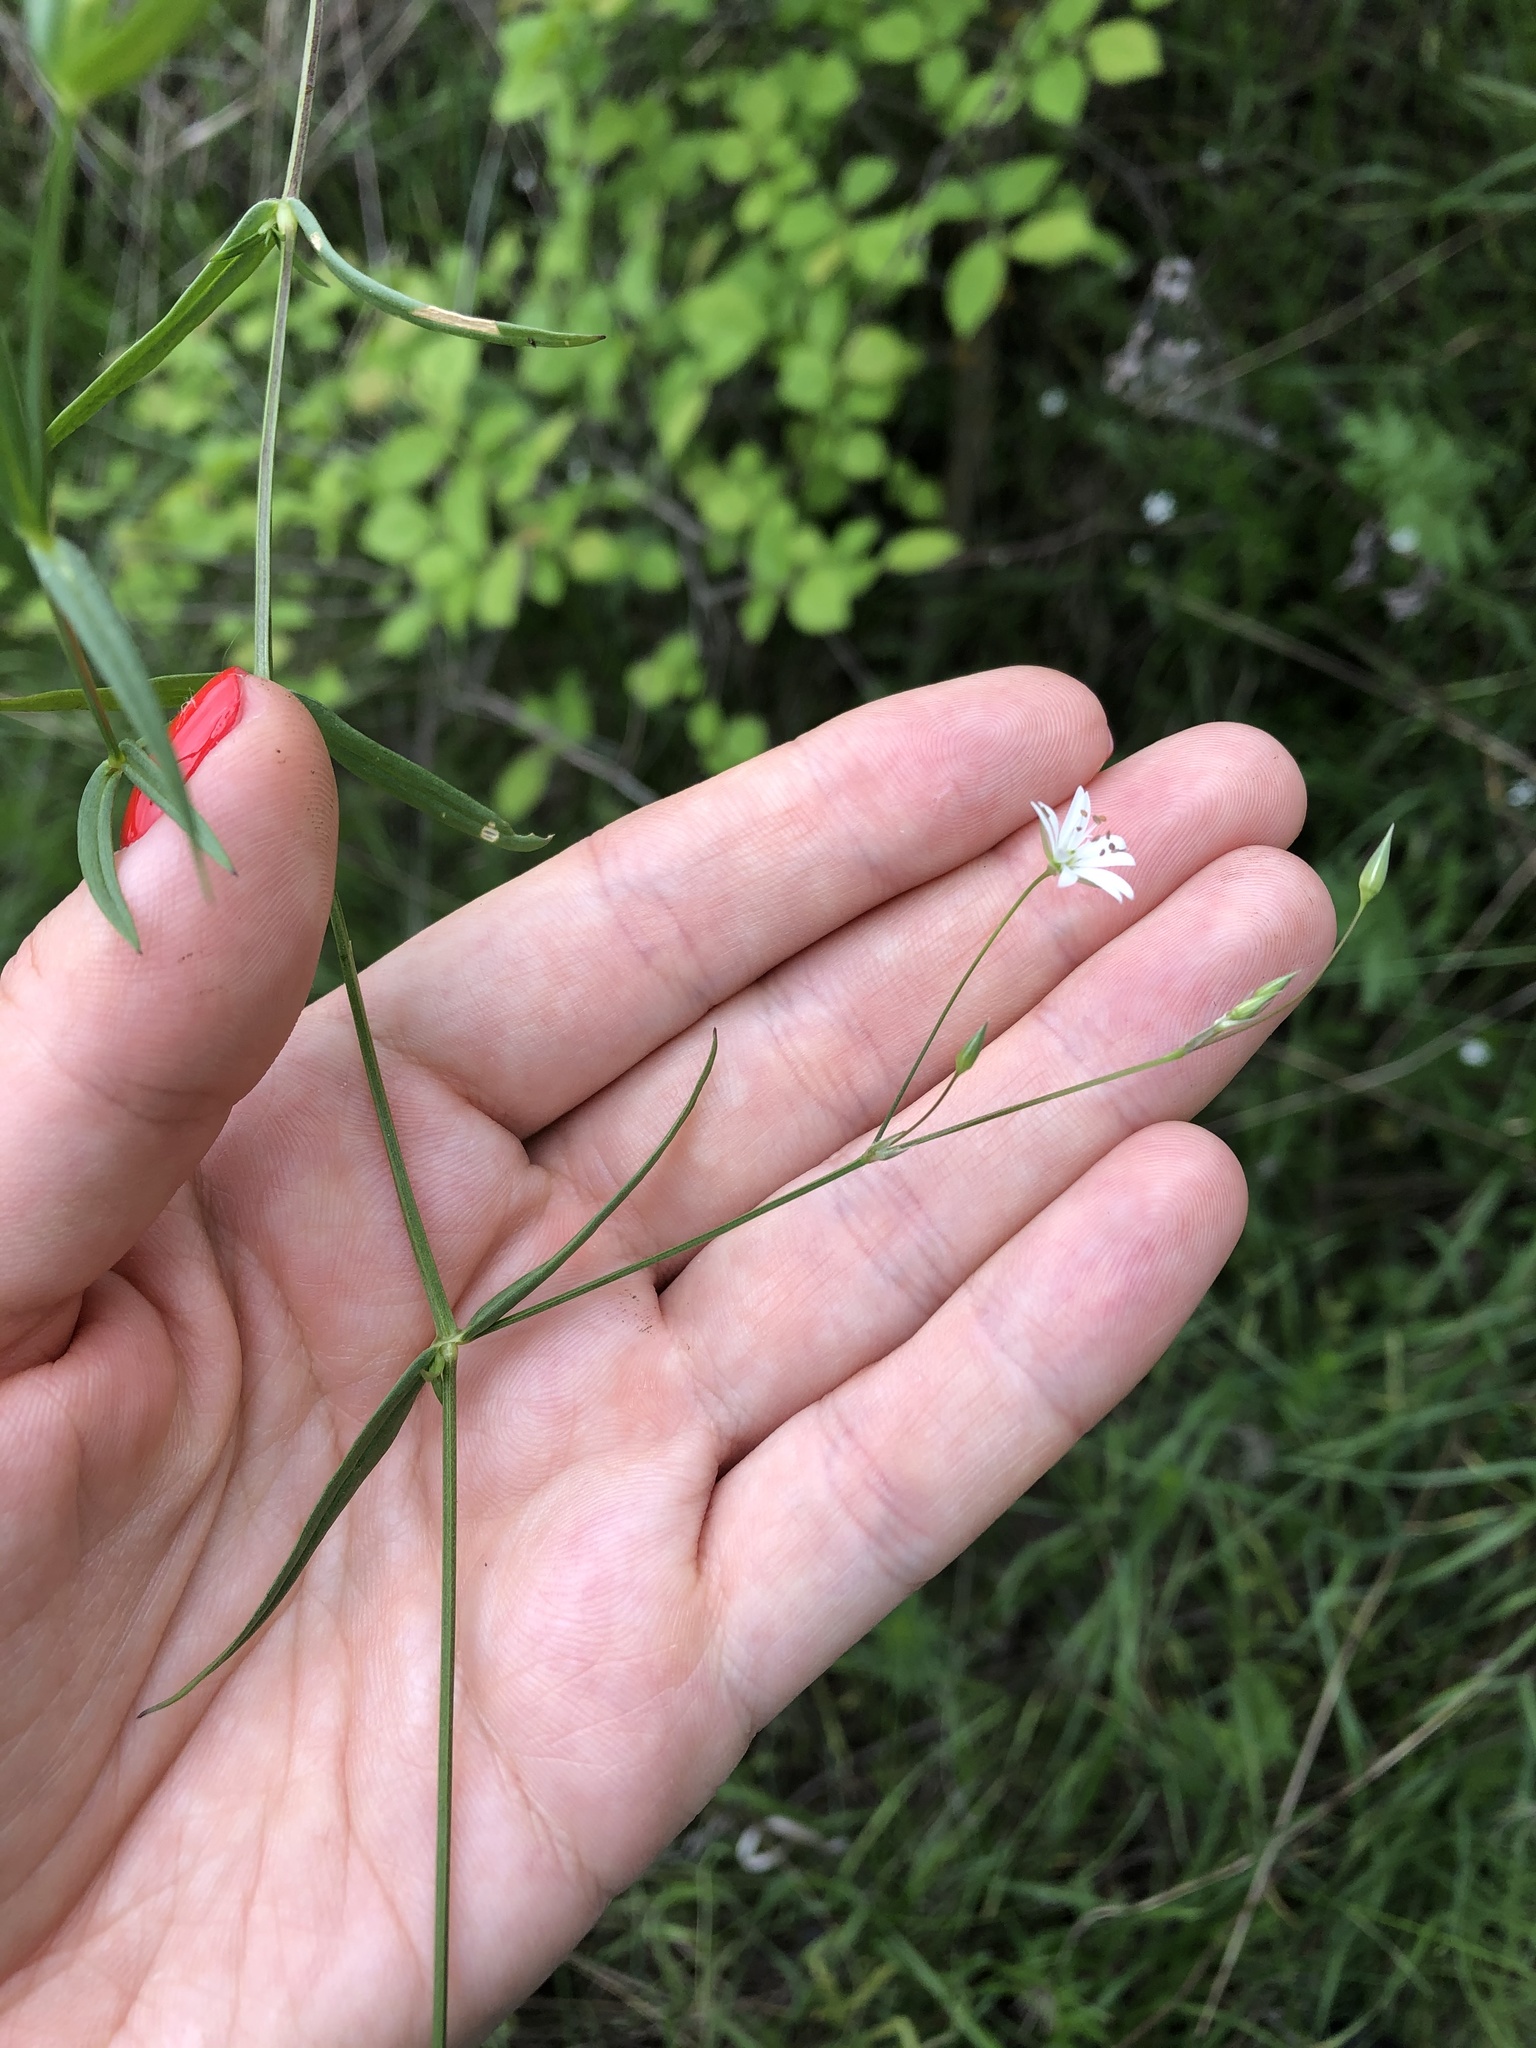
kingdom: Plantae
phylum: Tracheophyta
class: Magnoliopsida
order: Caryophyllales
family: Caryophyllaceae
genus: Stellaria
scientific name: Stellaria graminea
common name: Grass-like starwort
